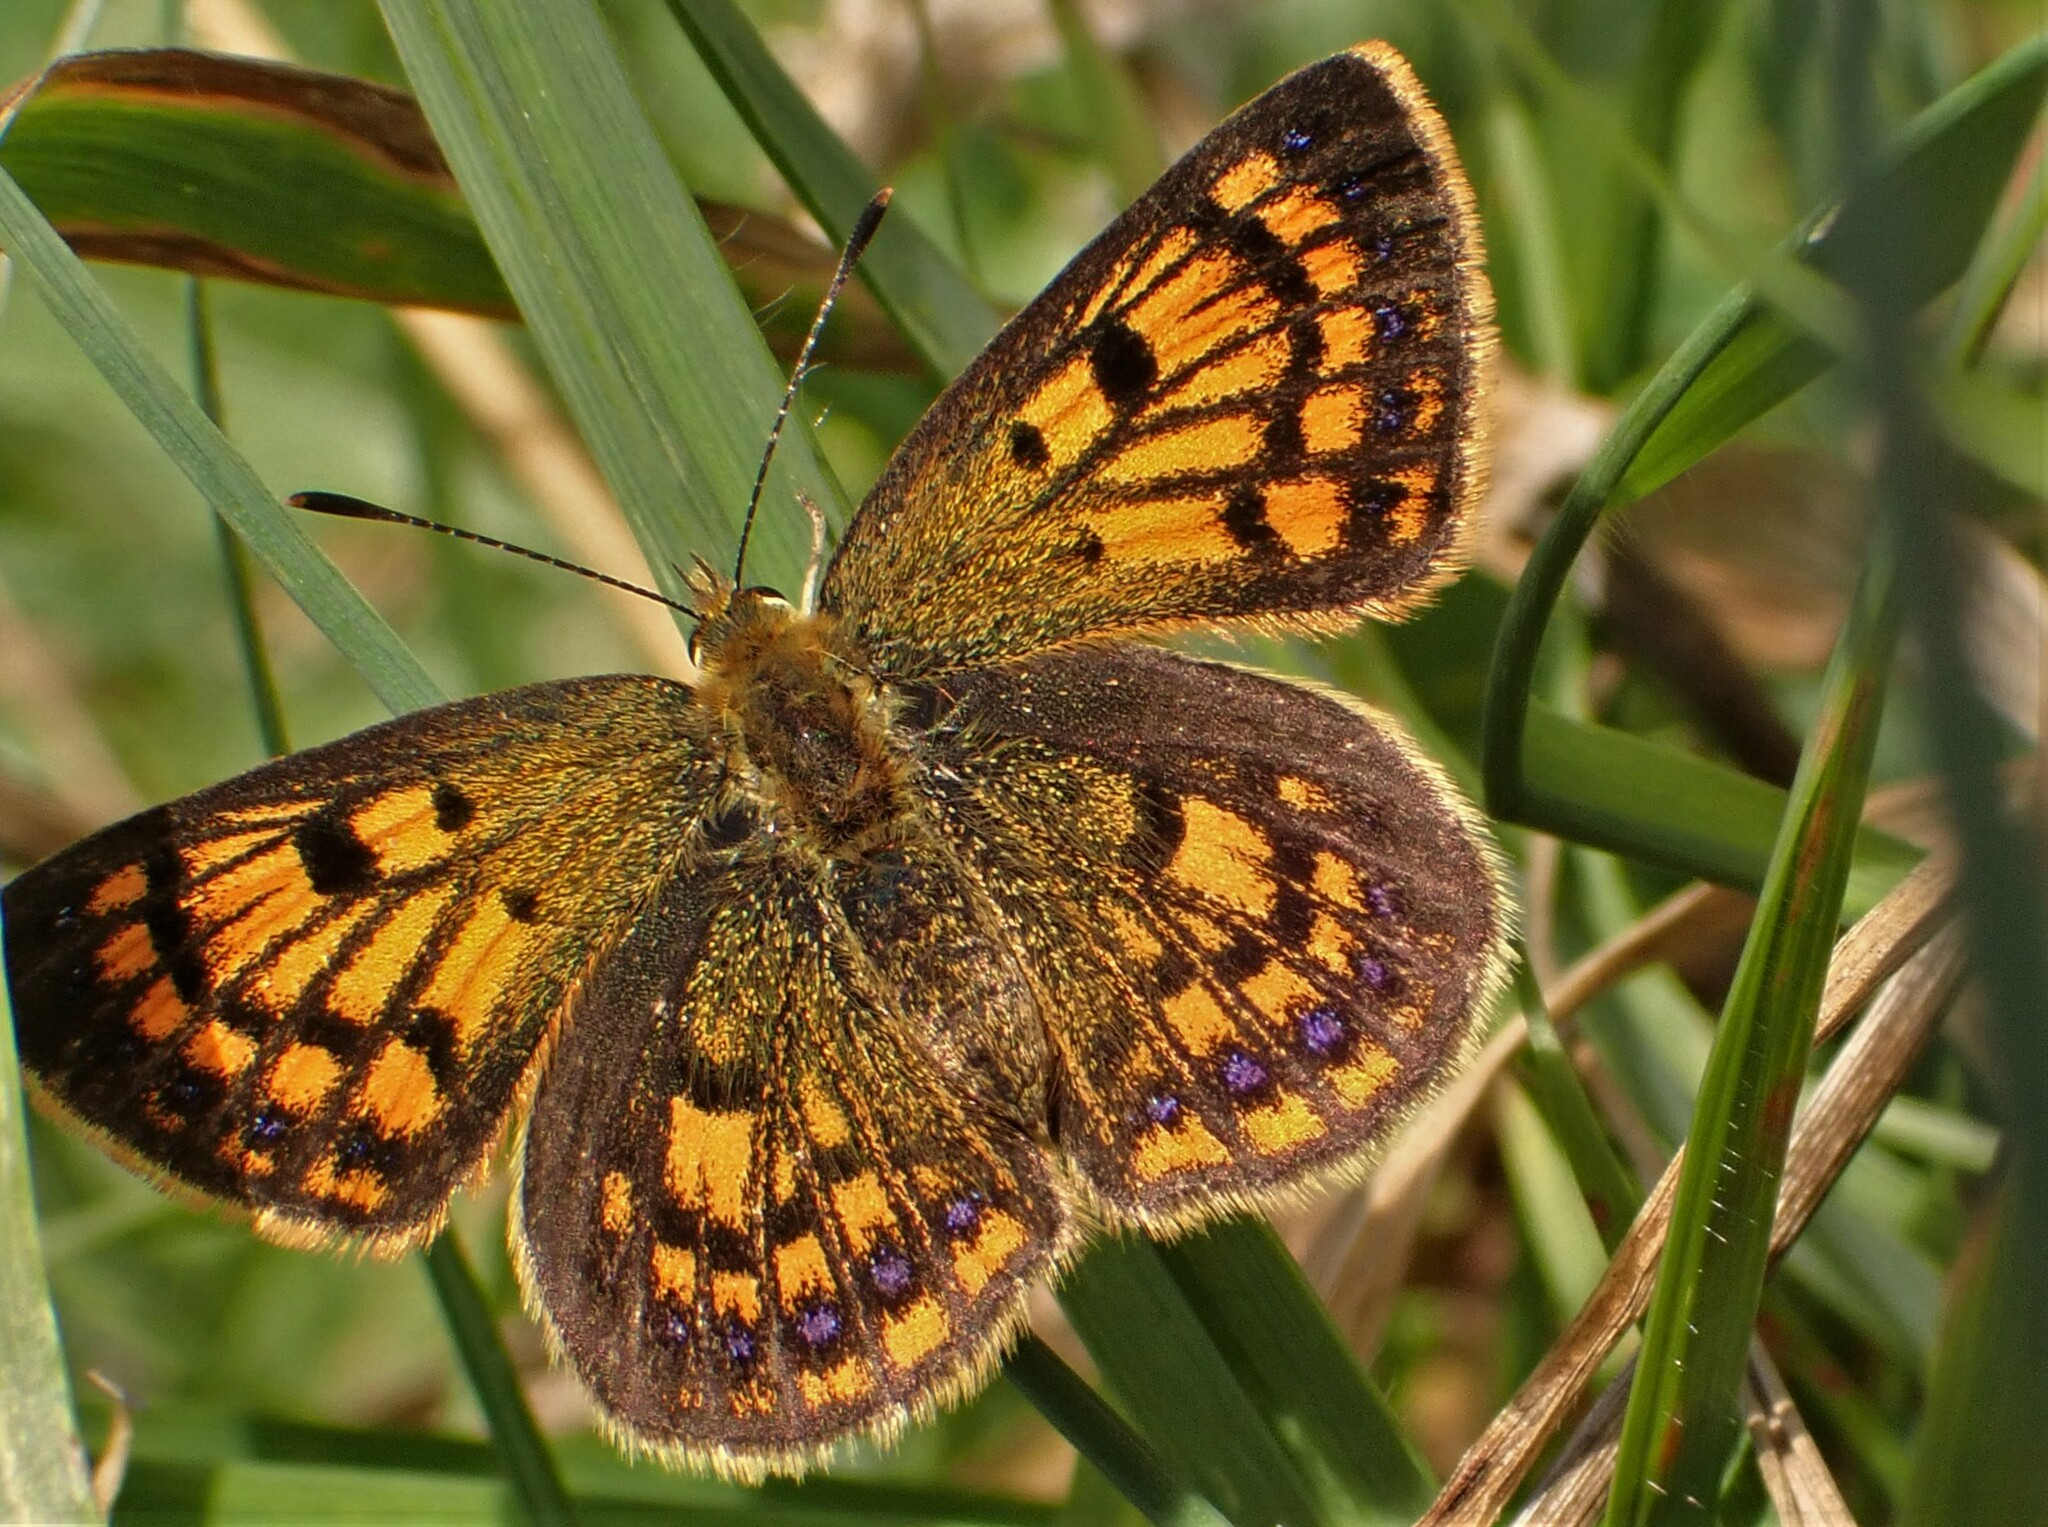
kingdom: Animalia
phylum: Arthropoda
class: Insecta
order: Lepidoptera
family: Lycaenidae
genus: Lycaena
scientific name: Lycaena
